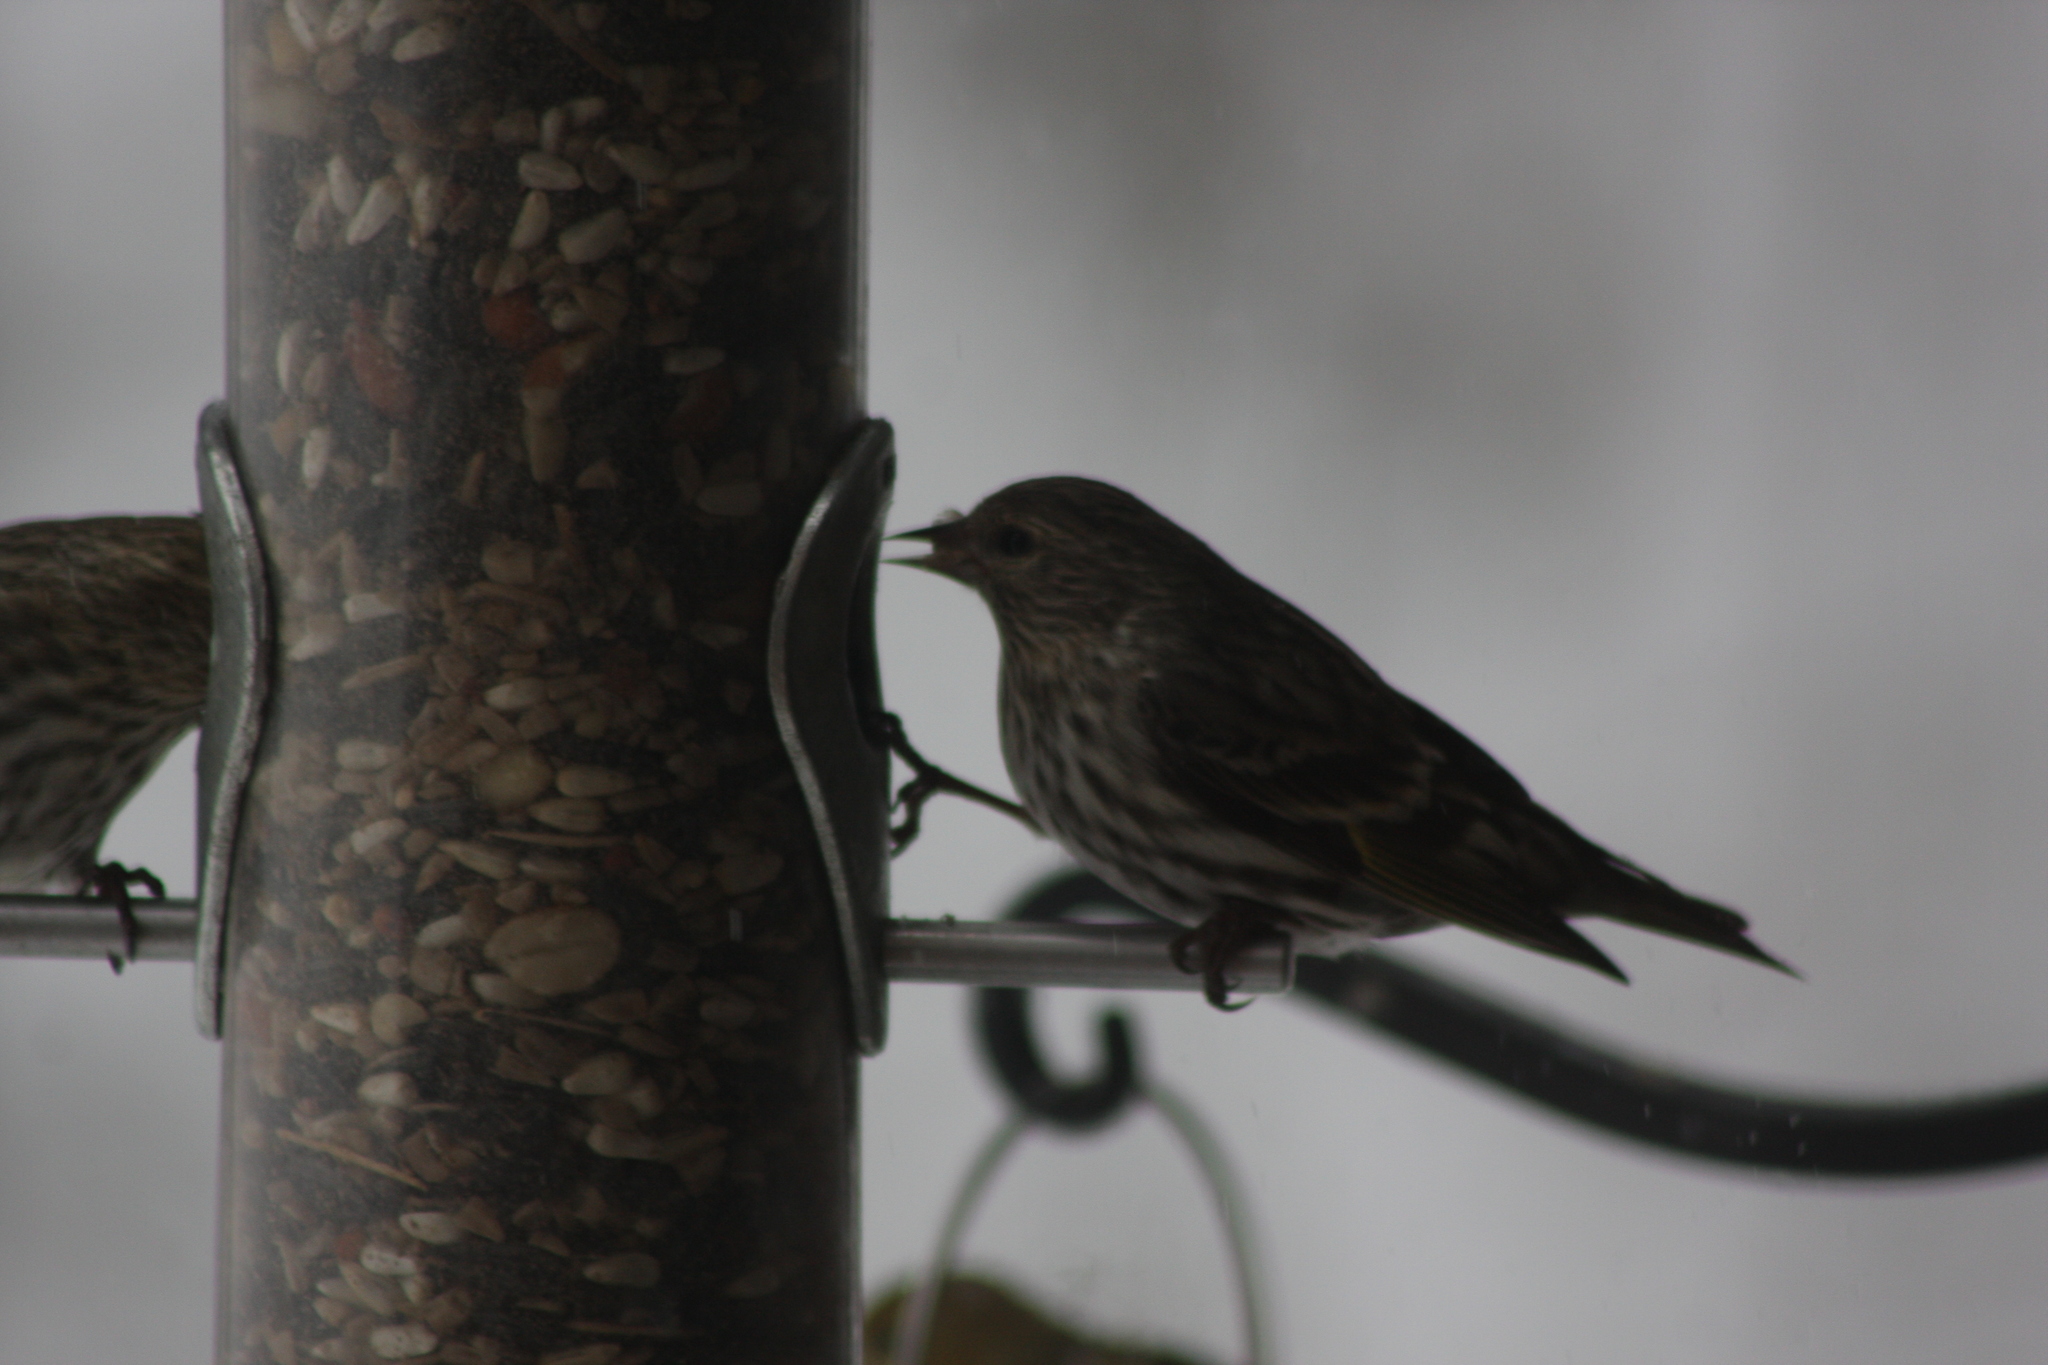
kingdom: Animalia
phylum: Chordata
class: Aves
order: Passeriformes
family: Fringillidae
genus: Spinus
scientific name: Spinus pinus
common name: Pine siskin
